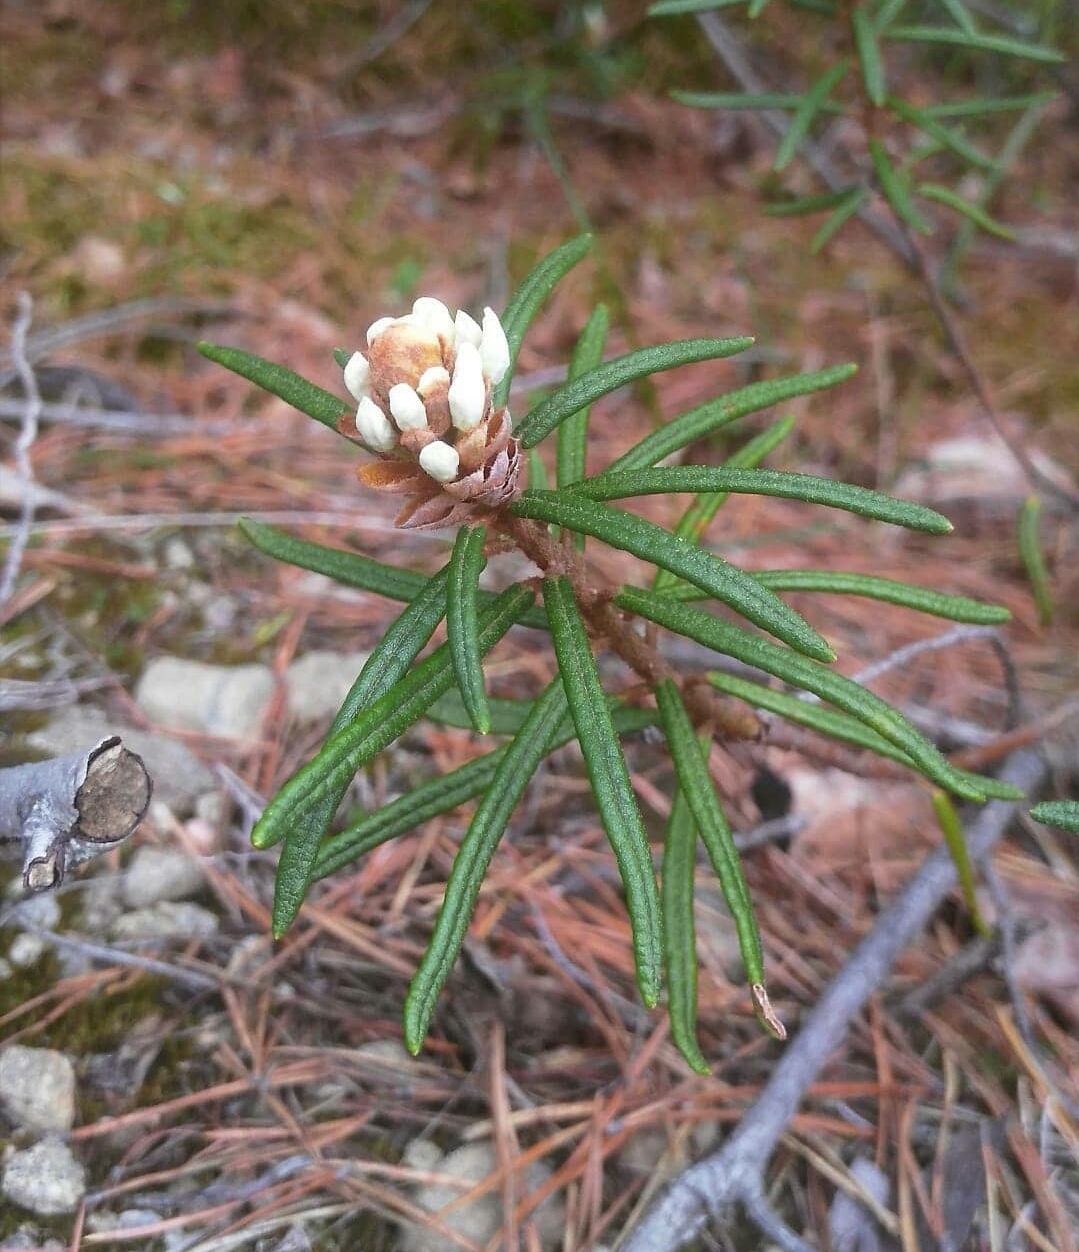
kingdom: Plantae
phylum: Tracheophyta
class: Magnoliopsida
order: Ericales
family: Ericaceae
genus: Rhododendron
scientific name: Rhododendron tomentosum
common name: Marsh labrador tea
